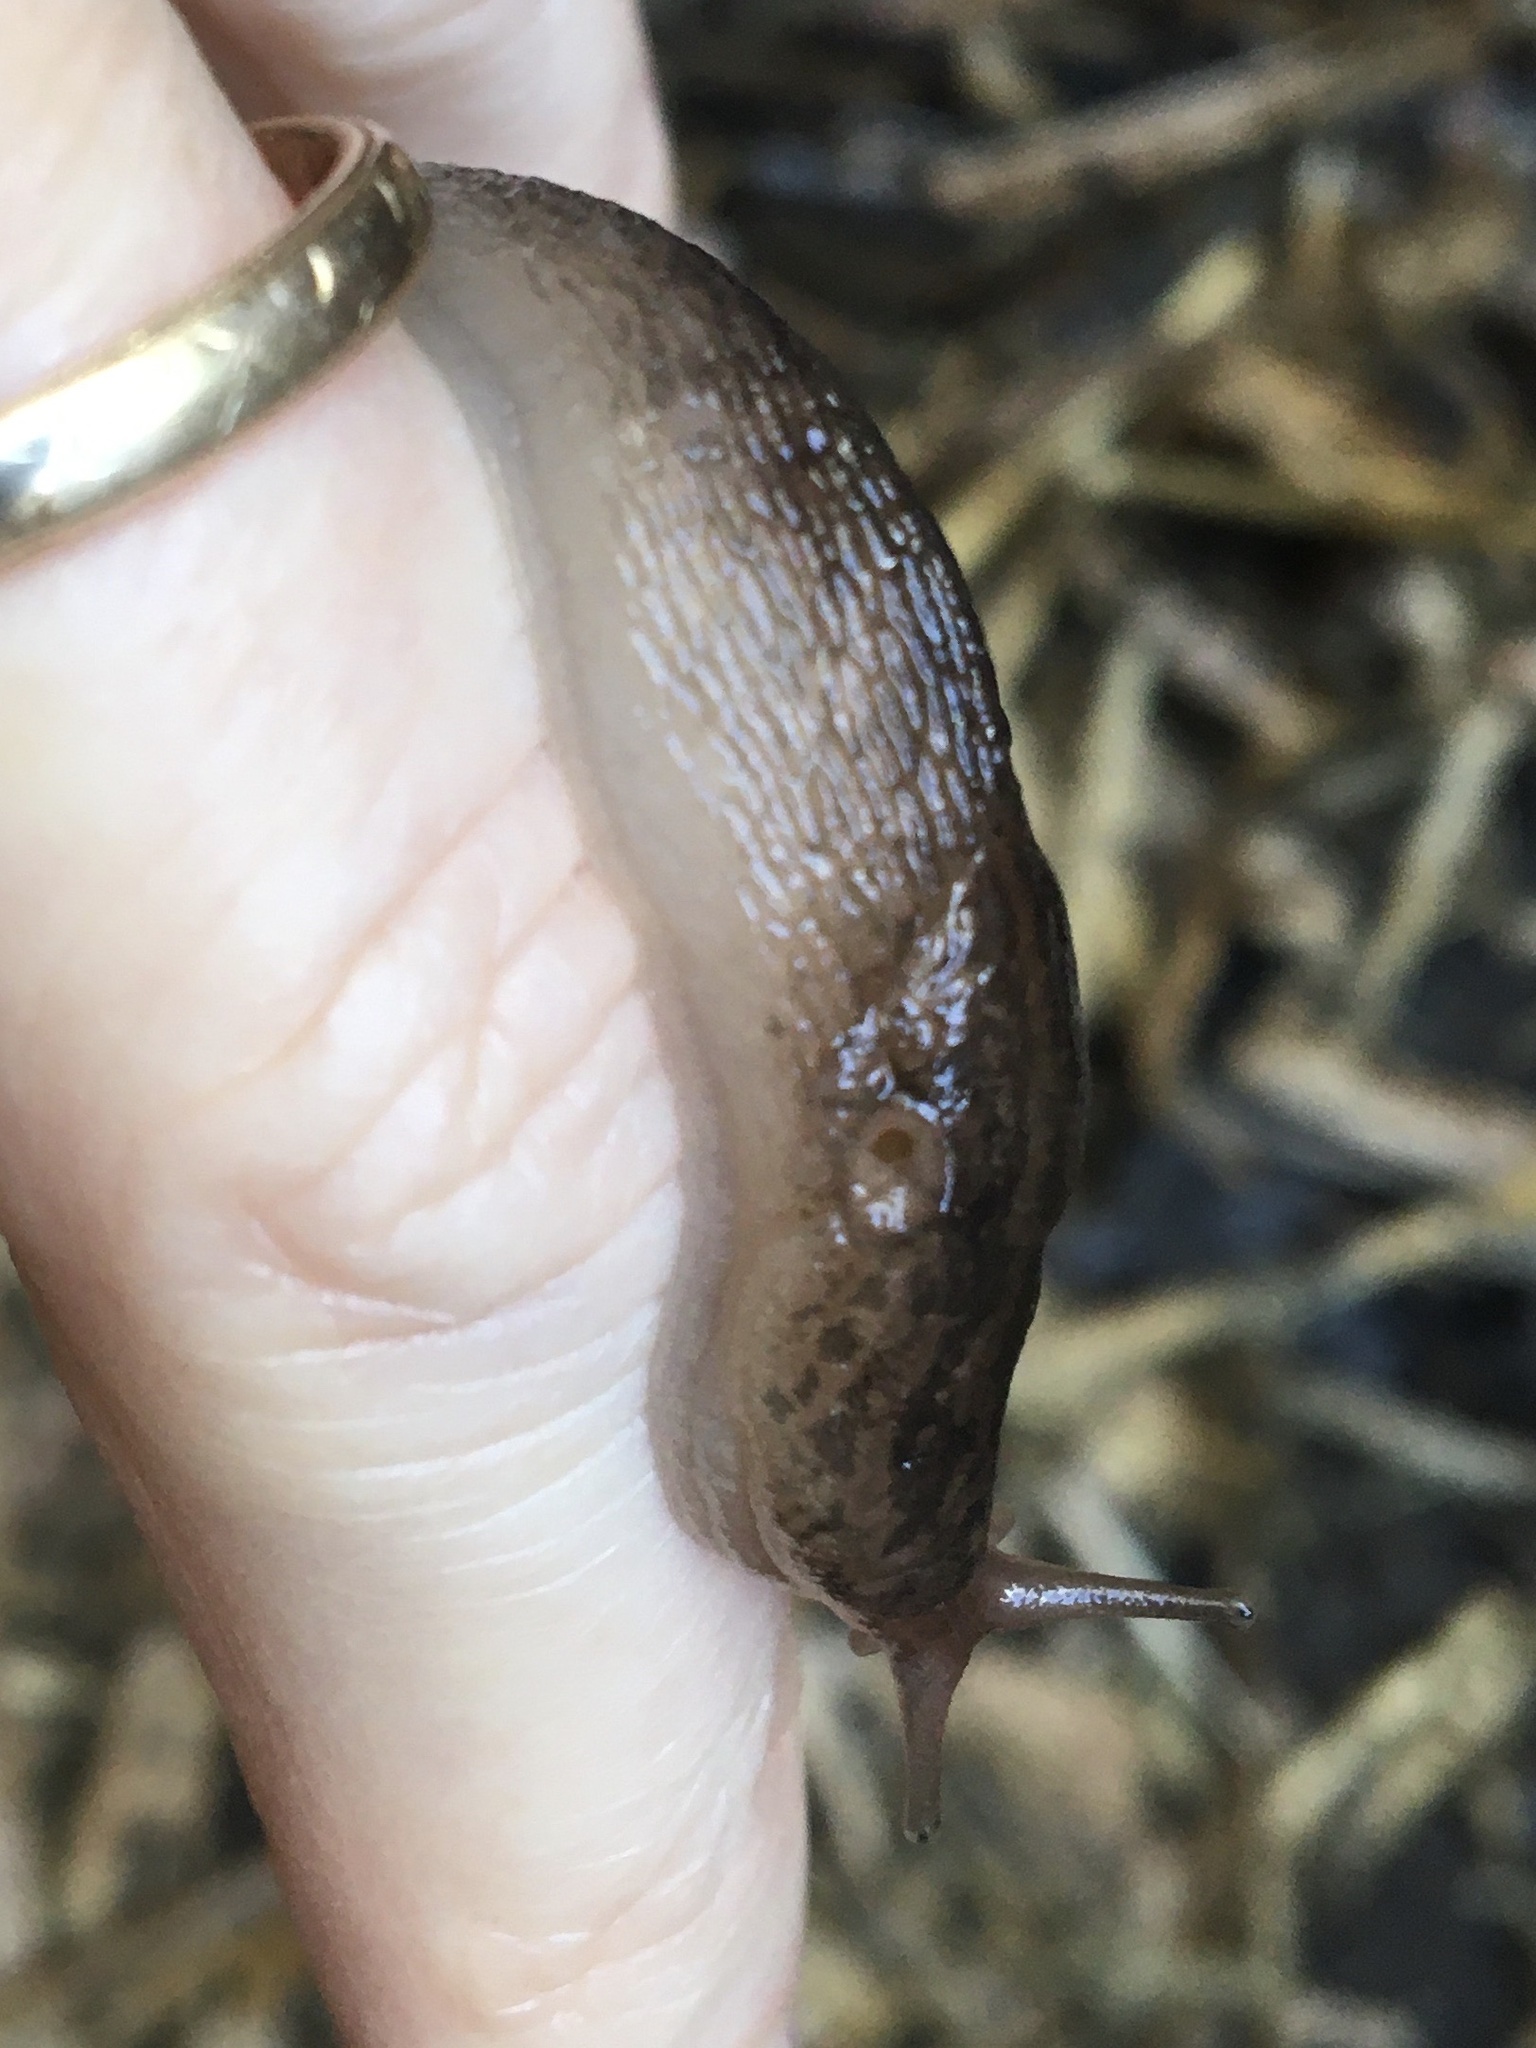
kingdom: Animalia
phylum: Mollusca
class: Gastropoda
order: Stylommatophora
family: Limacidae
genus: Ambigolimax
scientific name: Ambigolimax
